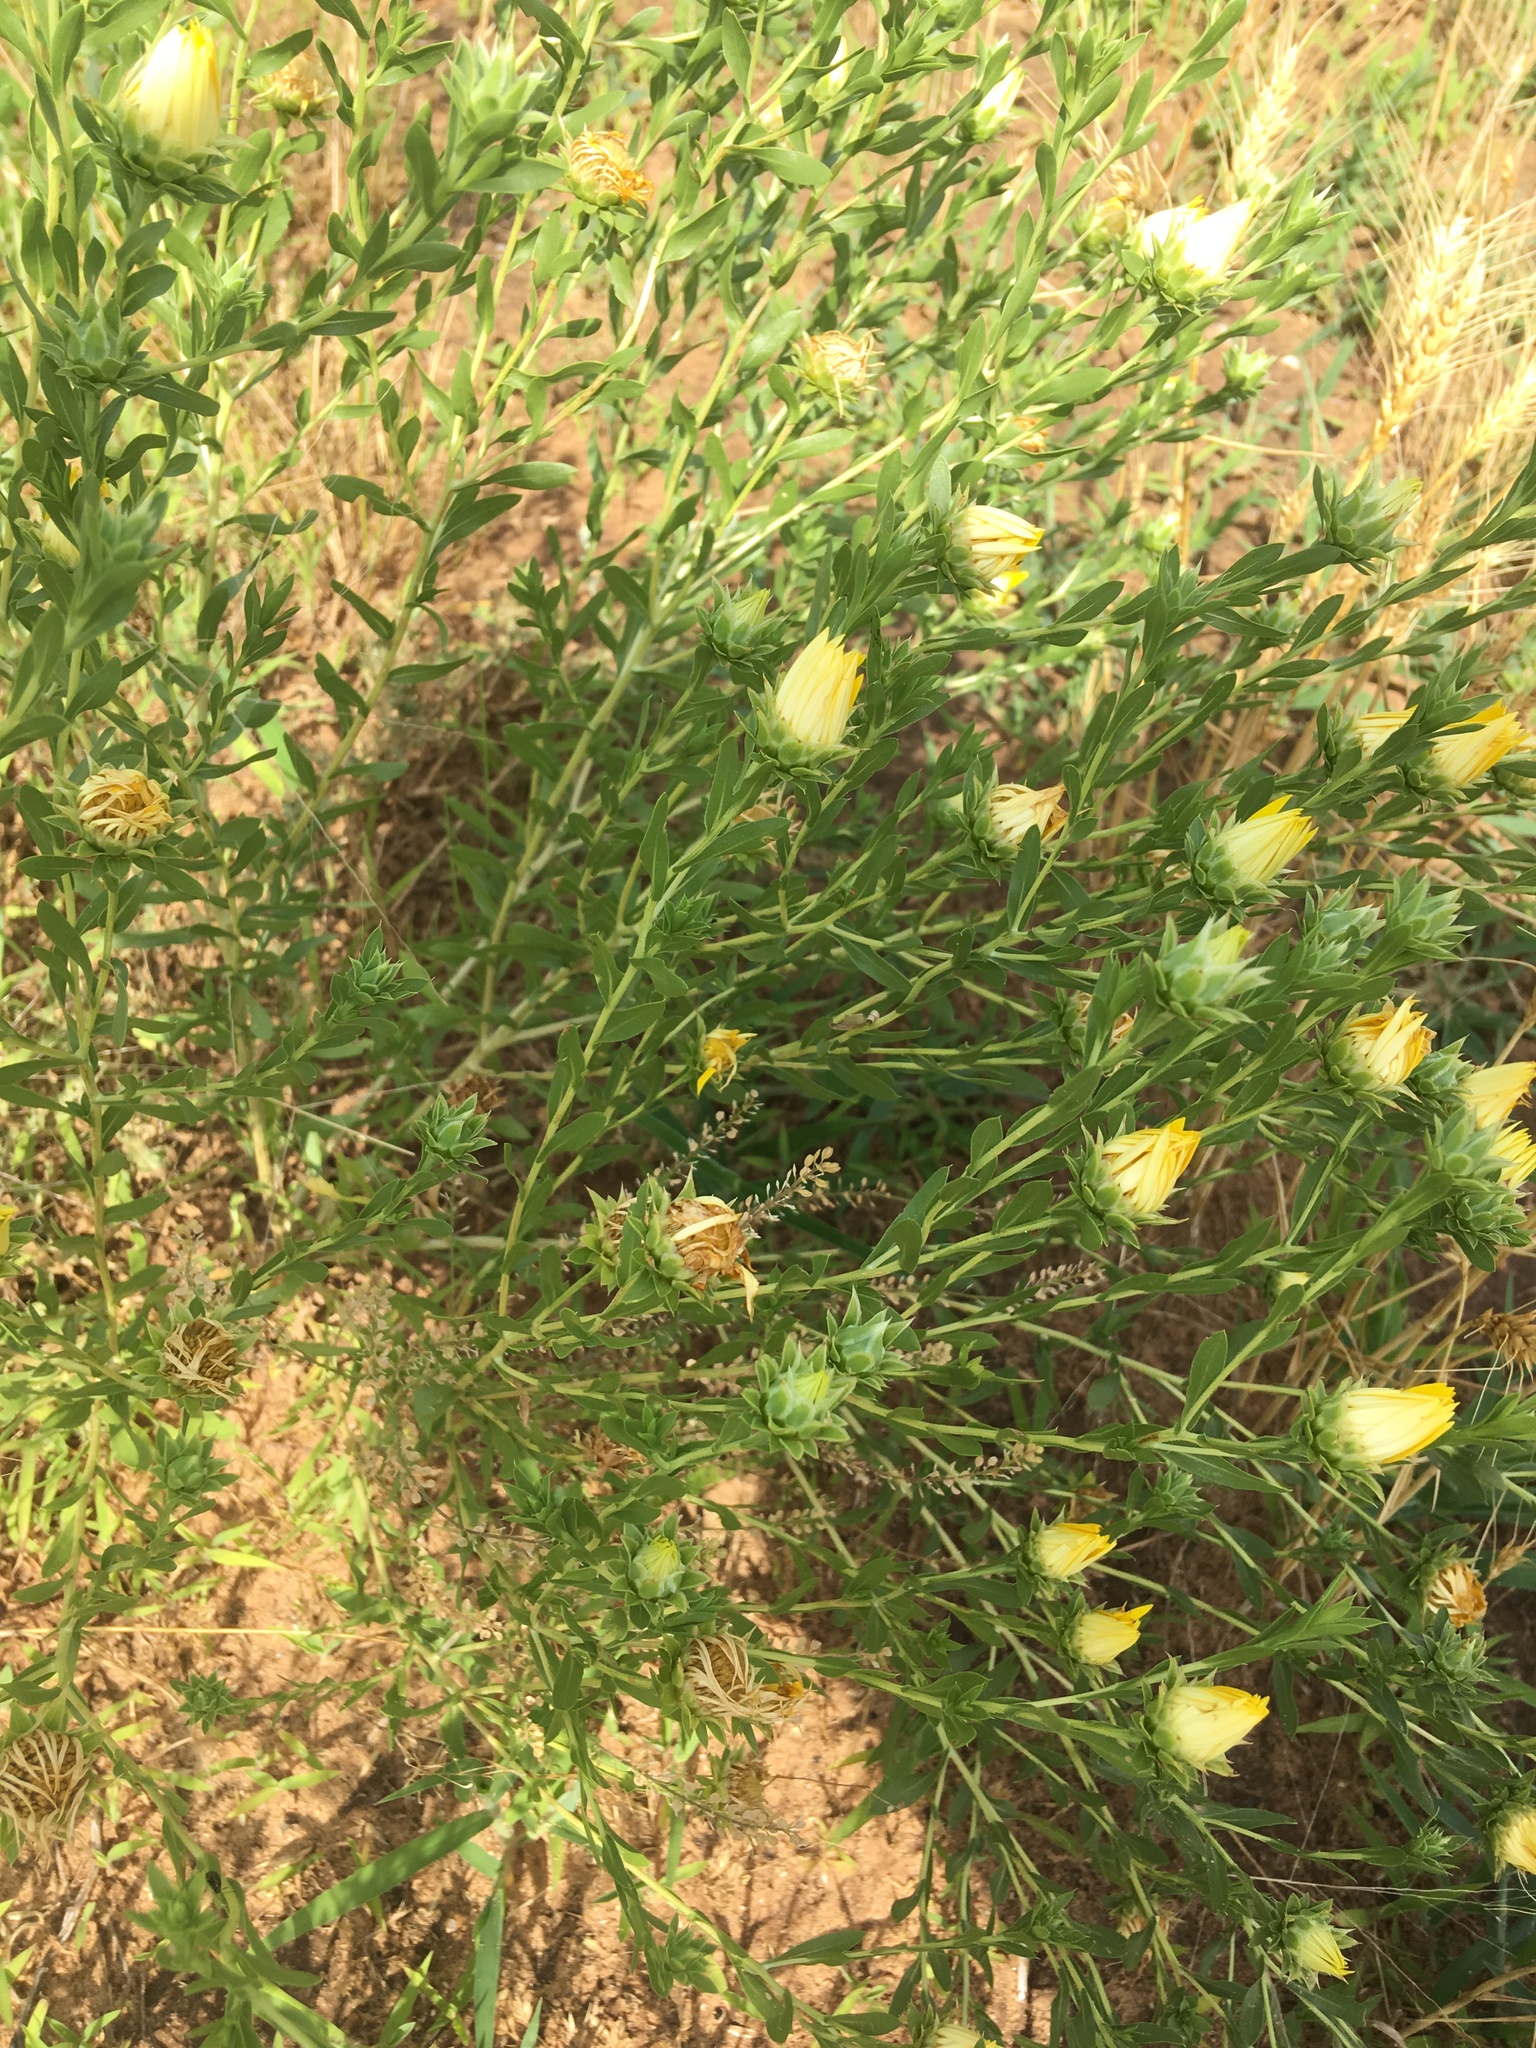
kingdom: Plantae
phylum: Tracheophyta
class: Magnoliopsida
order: Asterales
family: Asteraceae
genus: Xanthisma
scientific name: Xanthisma texanum
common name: Texas sleepy daisy
